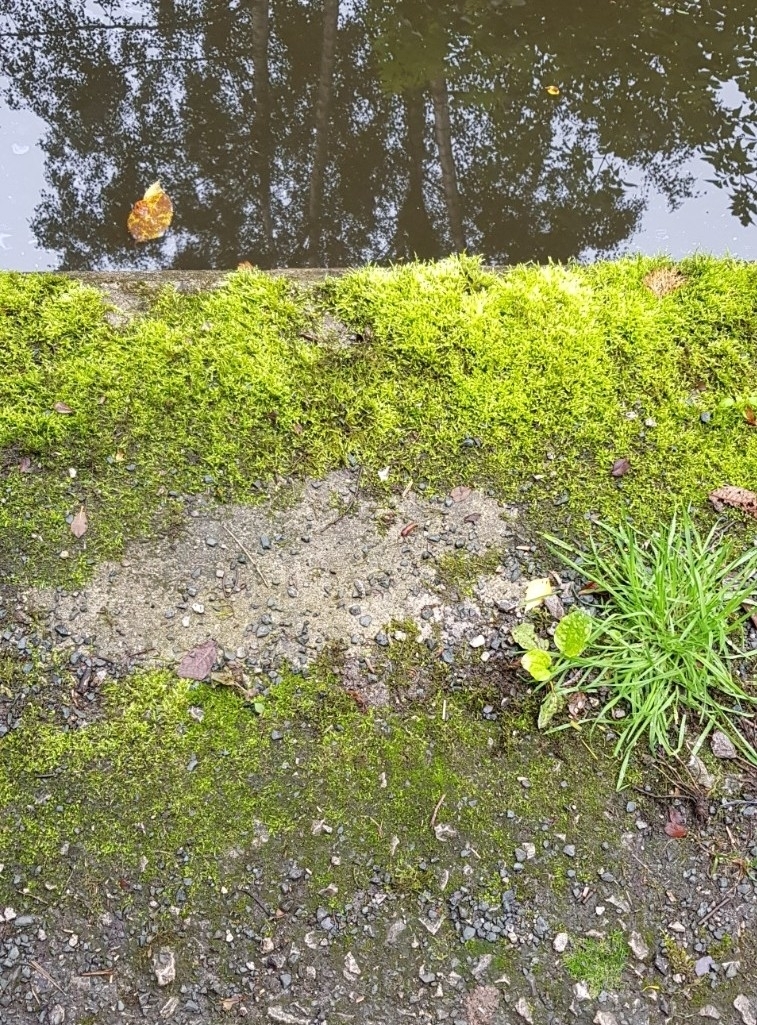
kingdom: Plantae
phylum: Bryophyta
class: Bryopsida
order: Hypnales
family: Brachytheciaceae
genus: Brachythecium
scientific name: Brachythecium rutabulum
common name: Rough-stalked feather-moss
